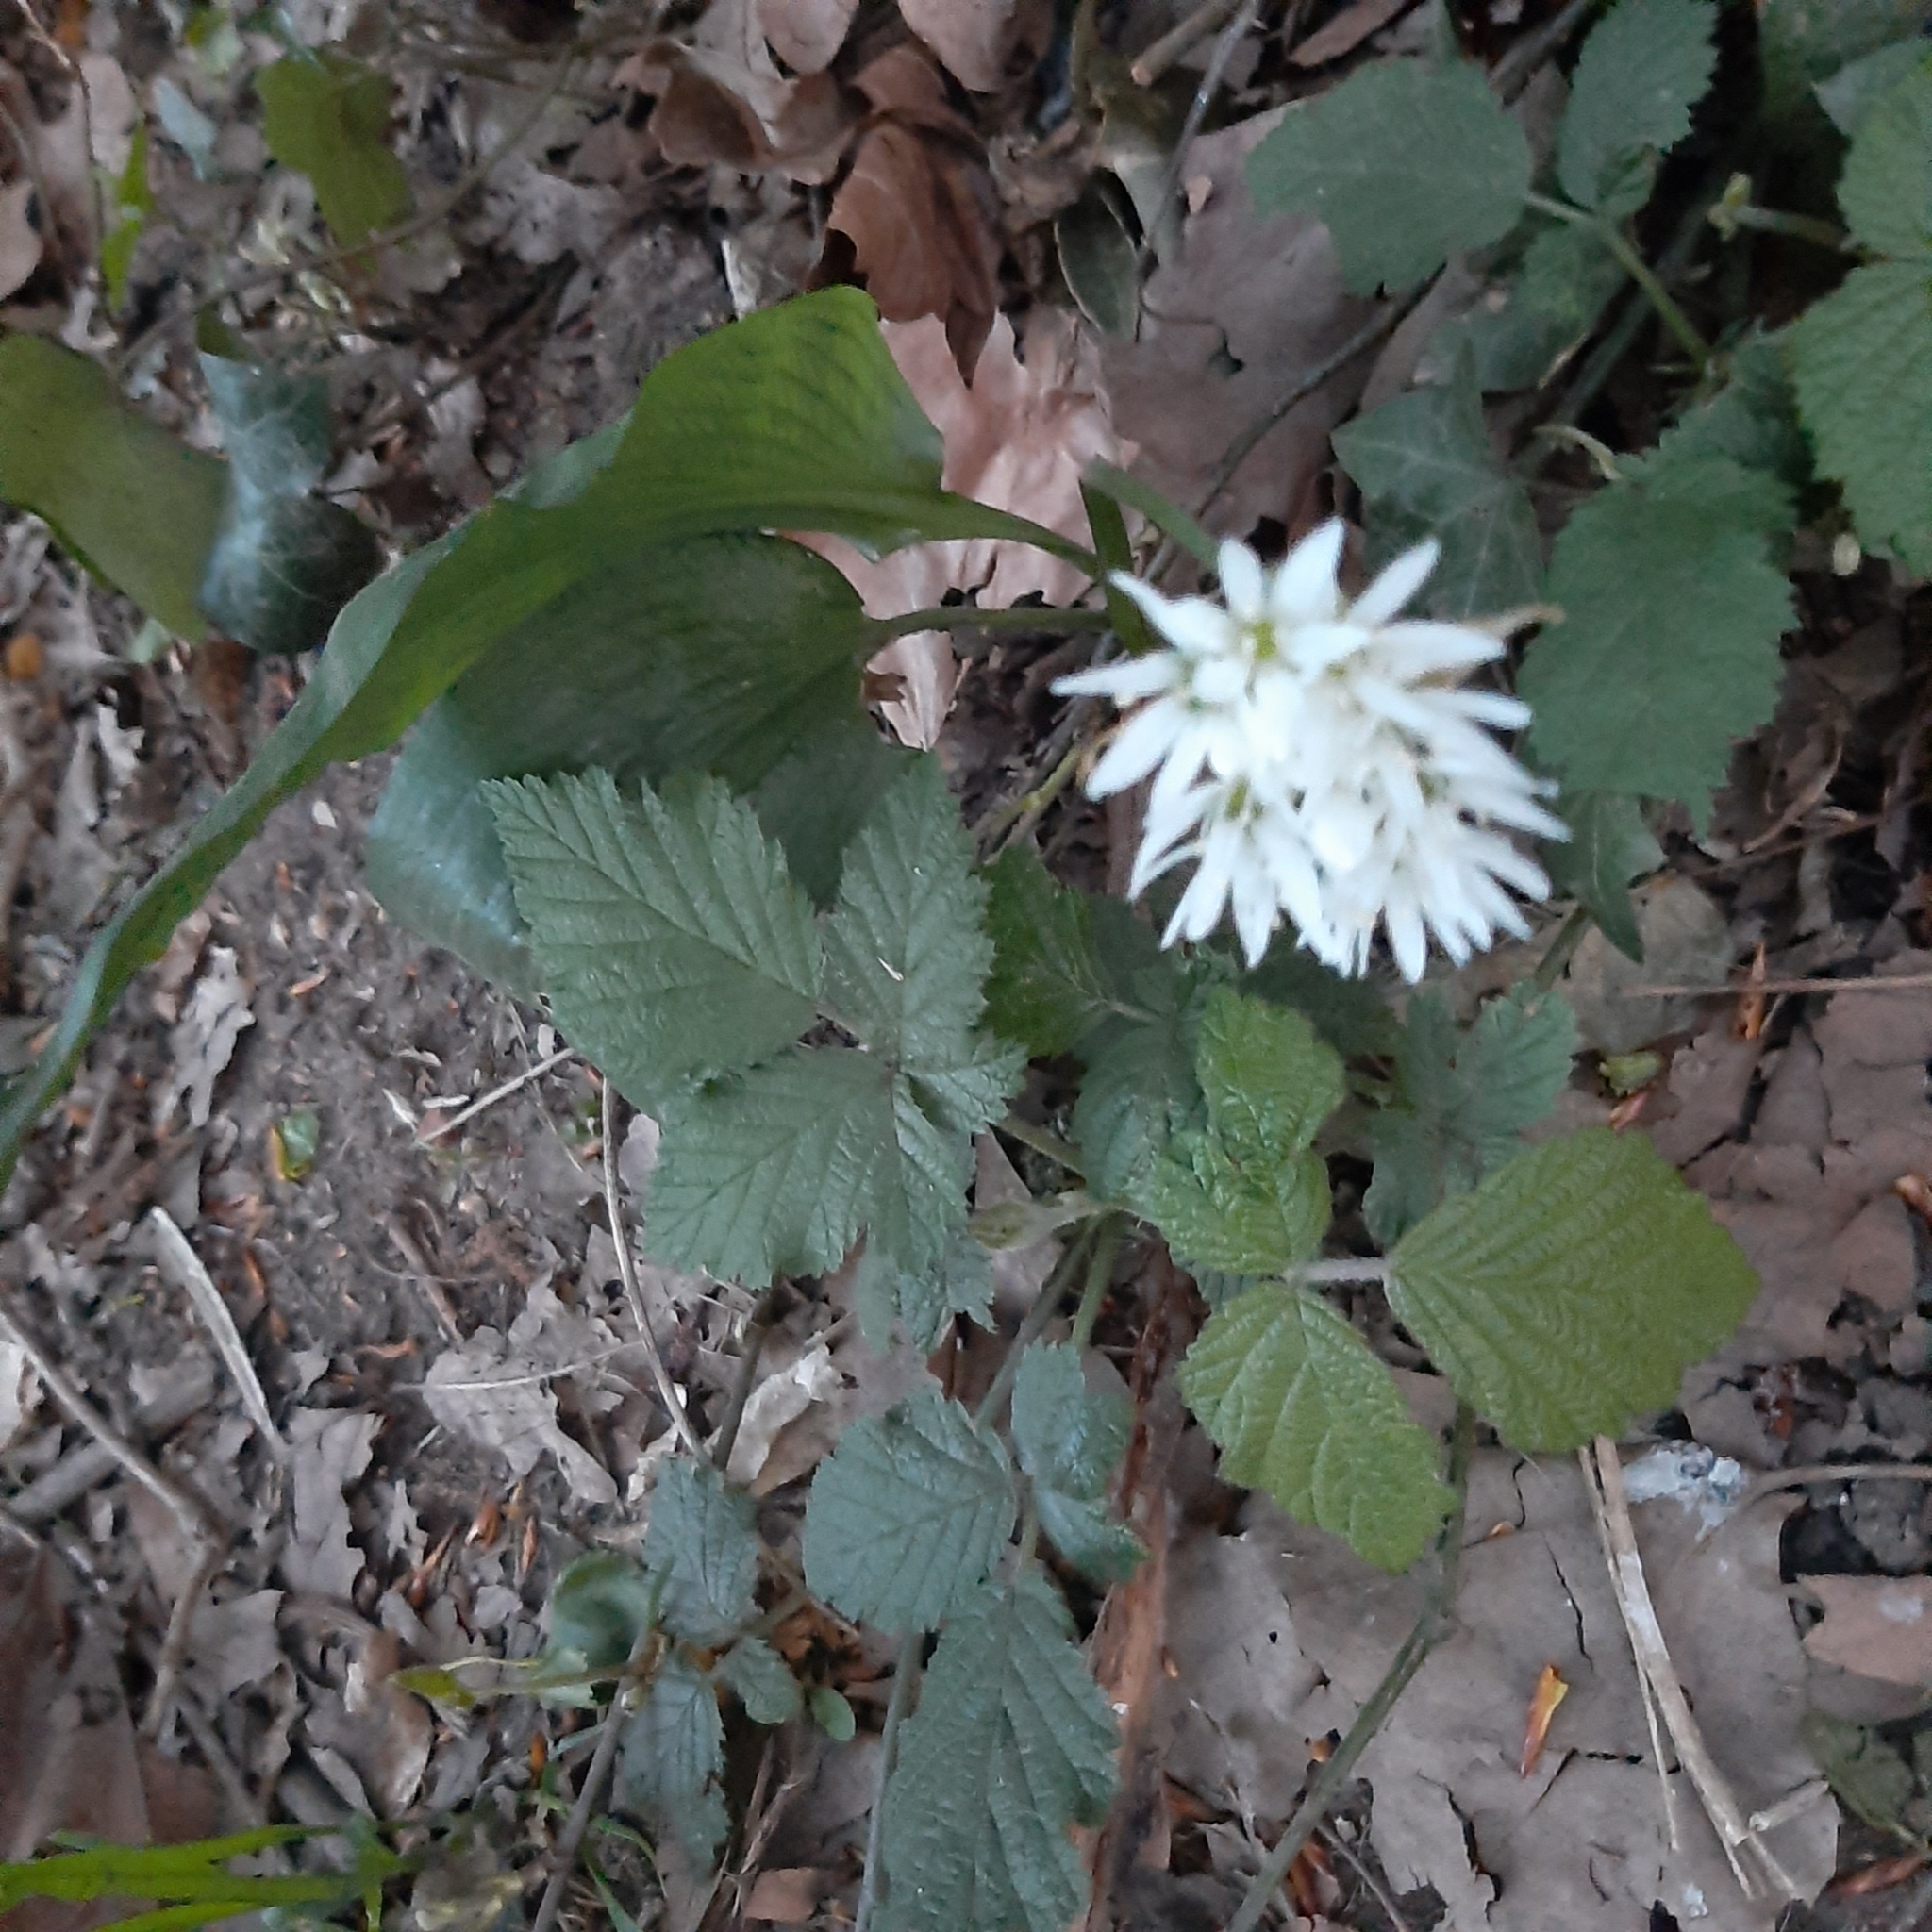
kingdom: Plantae
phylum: Tracheophyta
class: Liliopsida
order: Asparagales
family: Amaryllidaceae
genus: Allium
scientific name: Allium ursinum
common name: Ramsons
